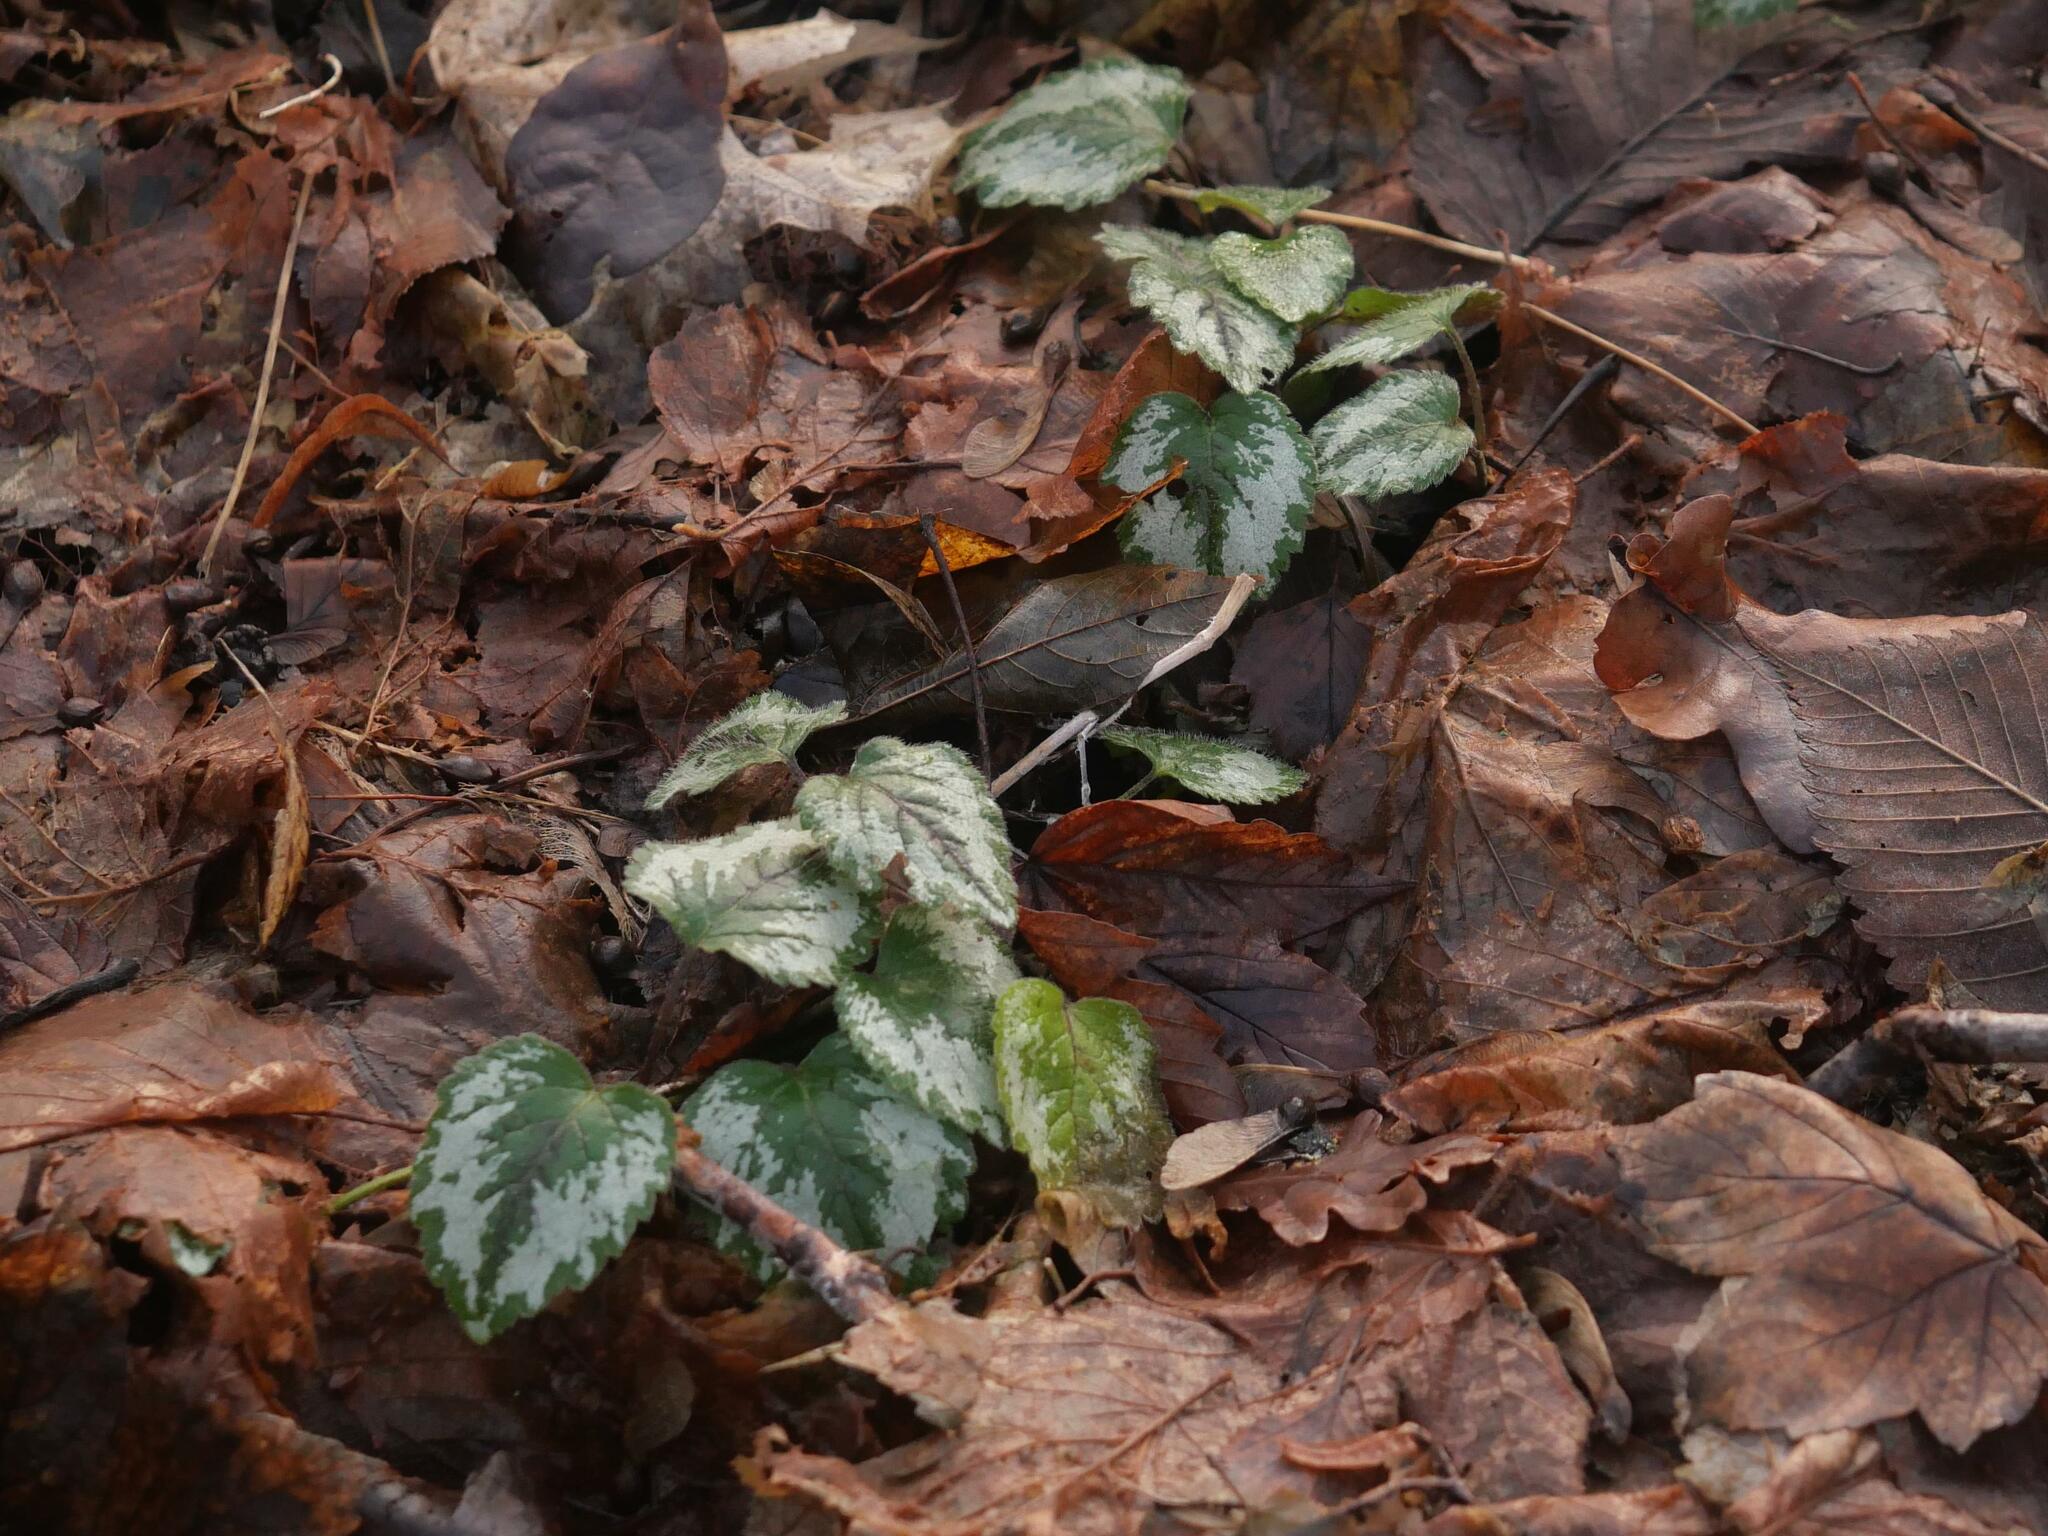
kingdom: Plantae
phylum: Tracheophyta
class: Magnoliopsida
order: Lamiales
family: Lamiaceae
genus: Lamium
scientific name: Lamium galeobdolon
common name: Yellow archangel
